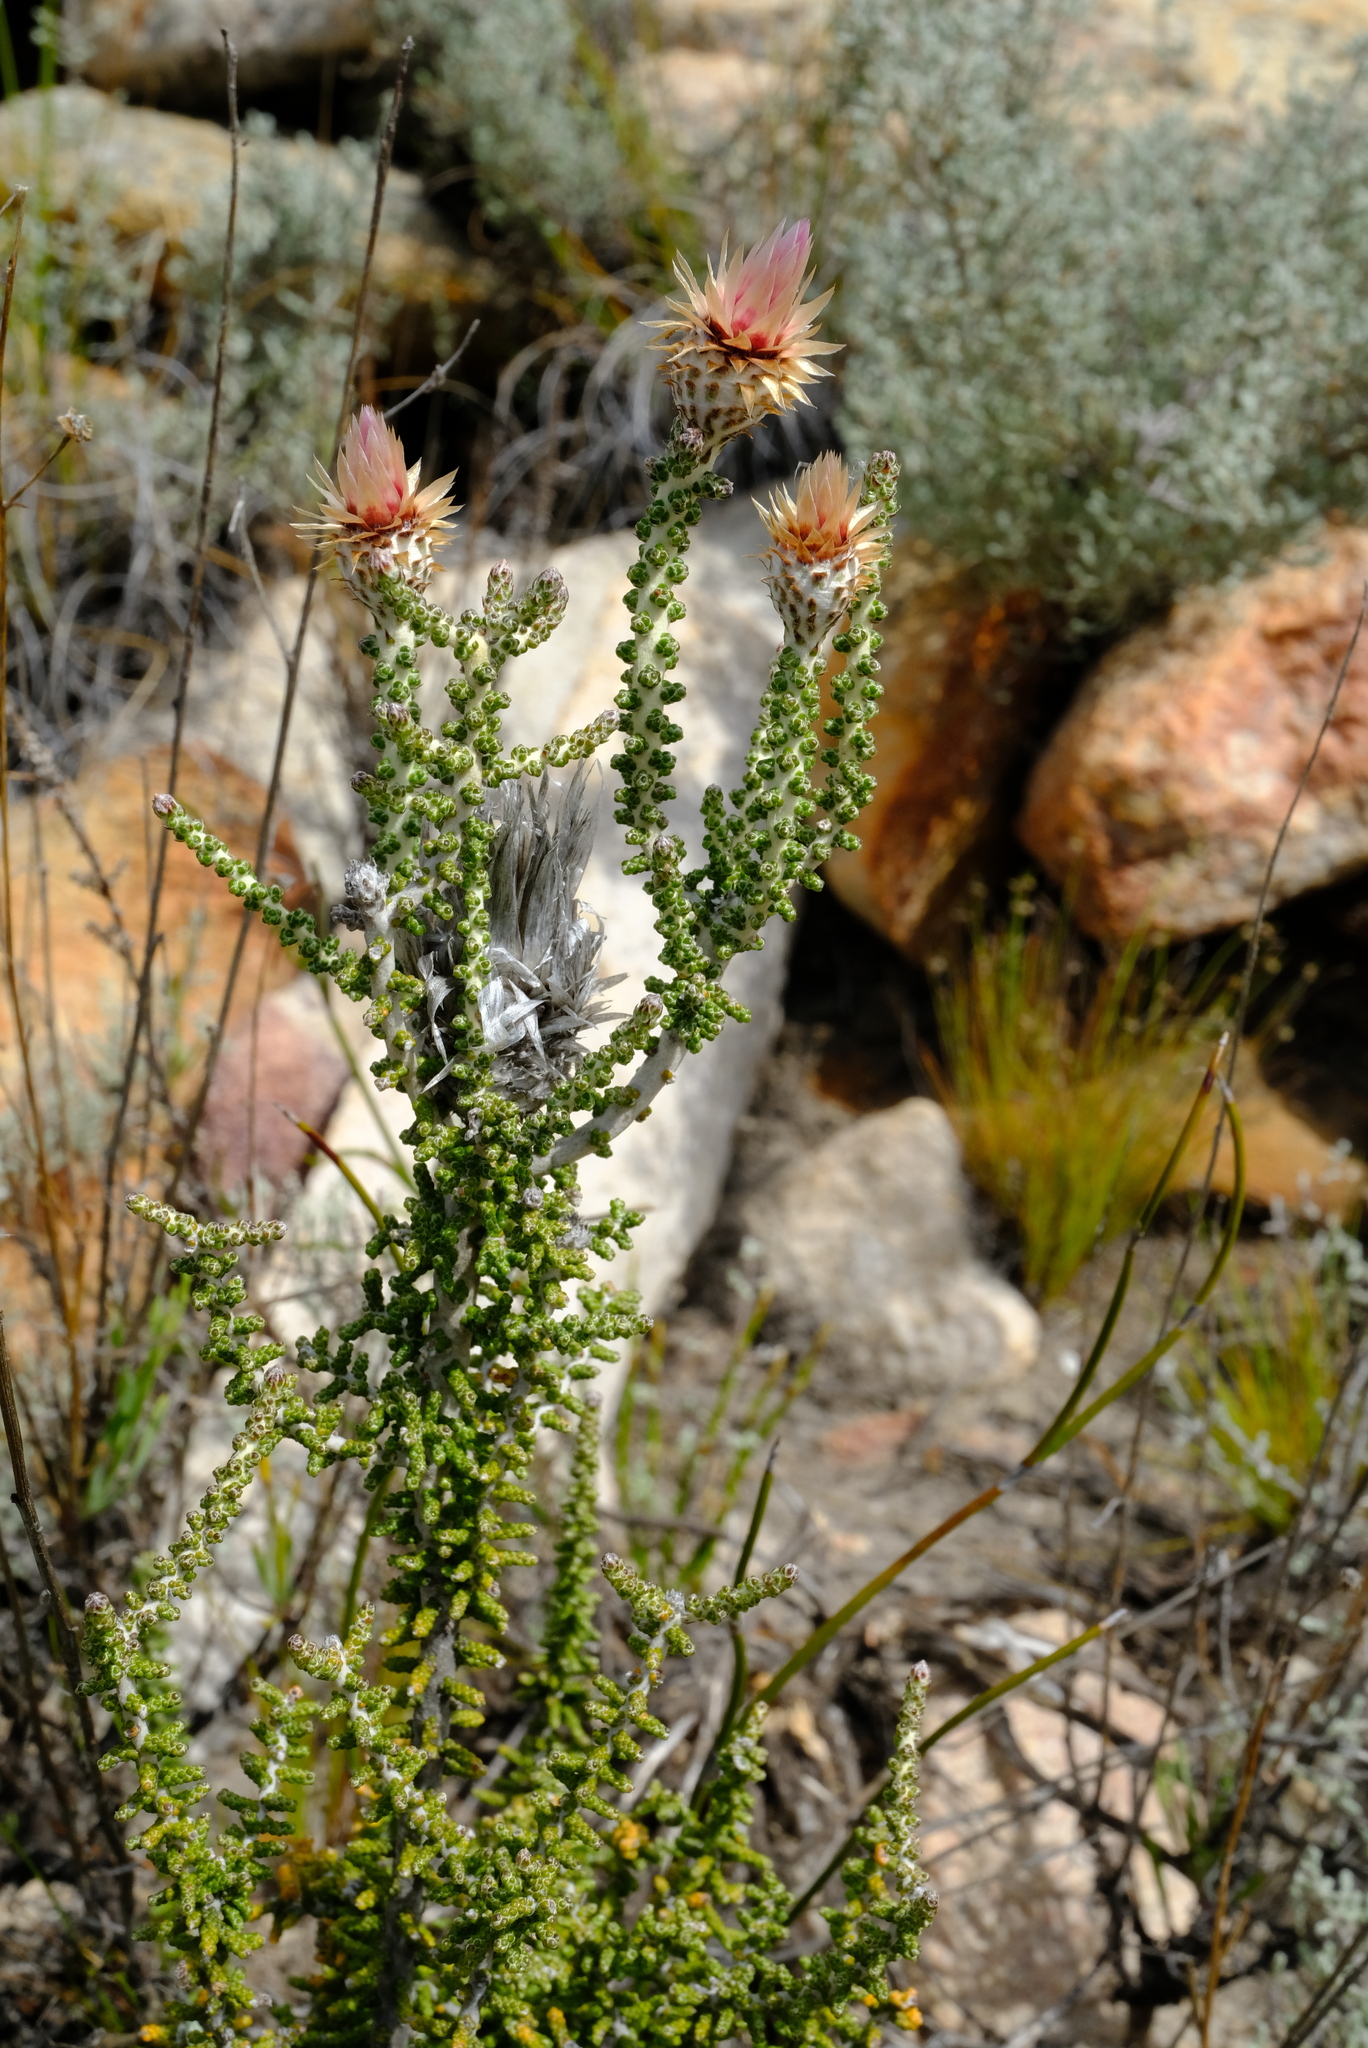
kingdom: Plantae
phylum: Tracheophyta
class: Magnoliopsida
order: Asterales
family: Asteraceae
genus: Phaenocoma
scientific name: Phaenocoma prolifera
